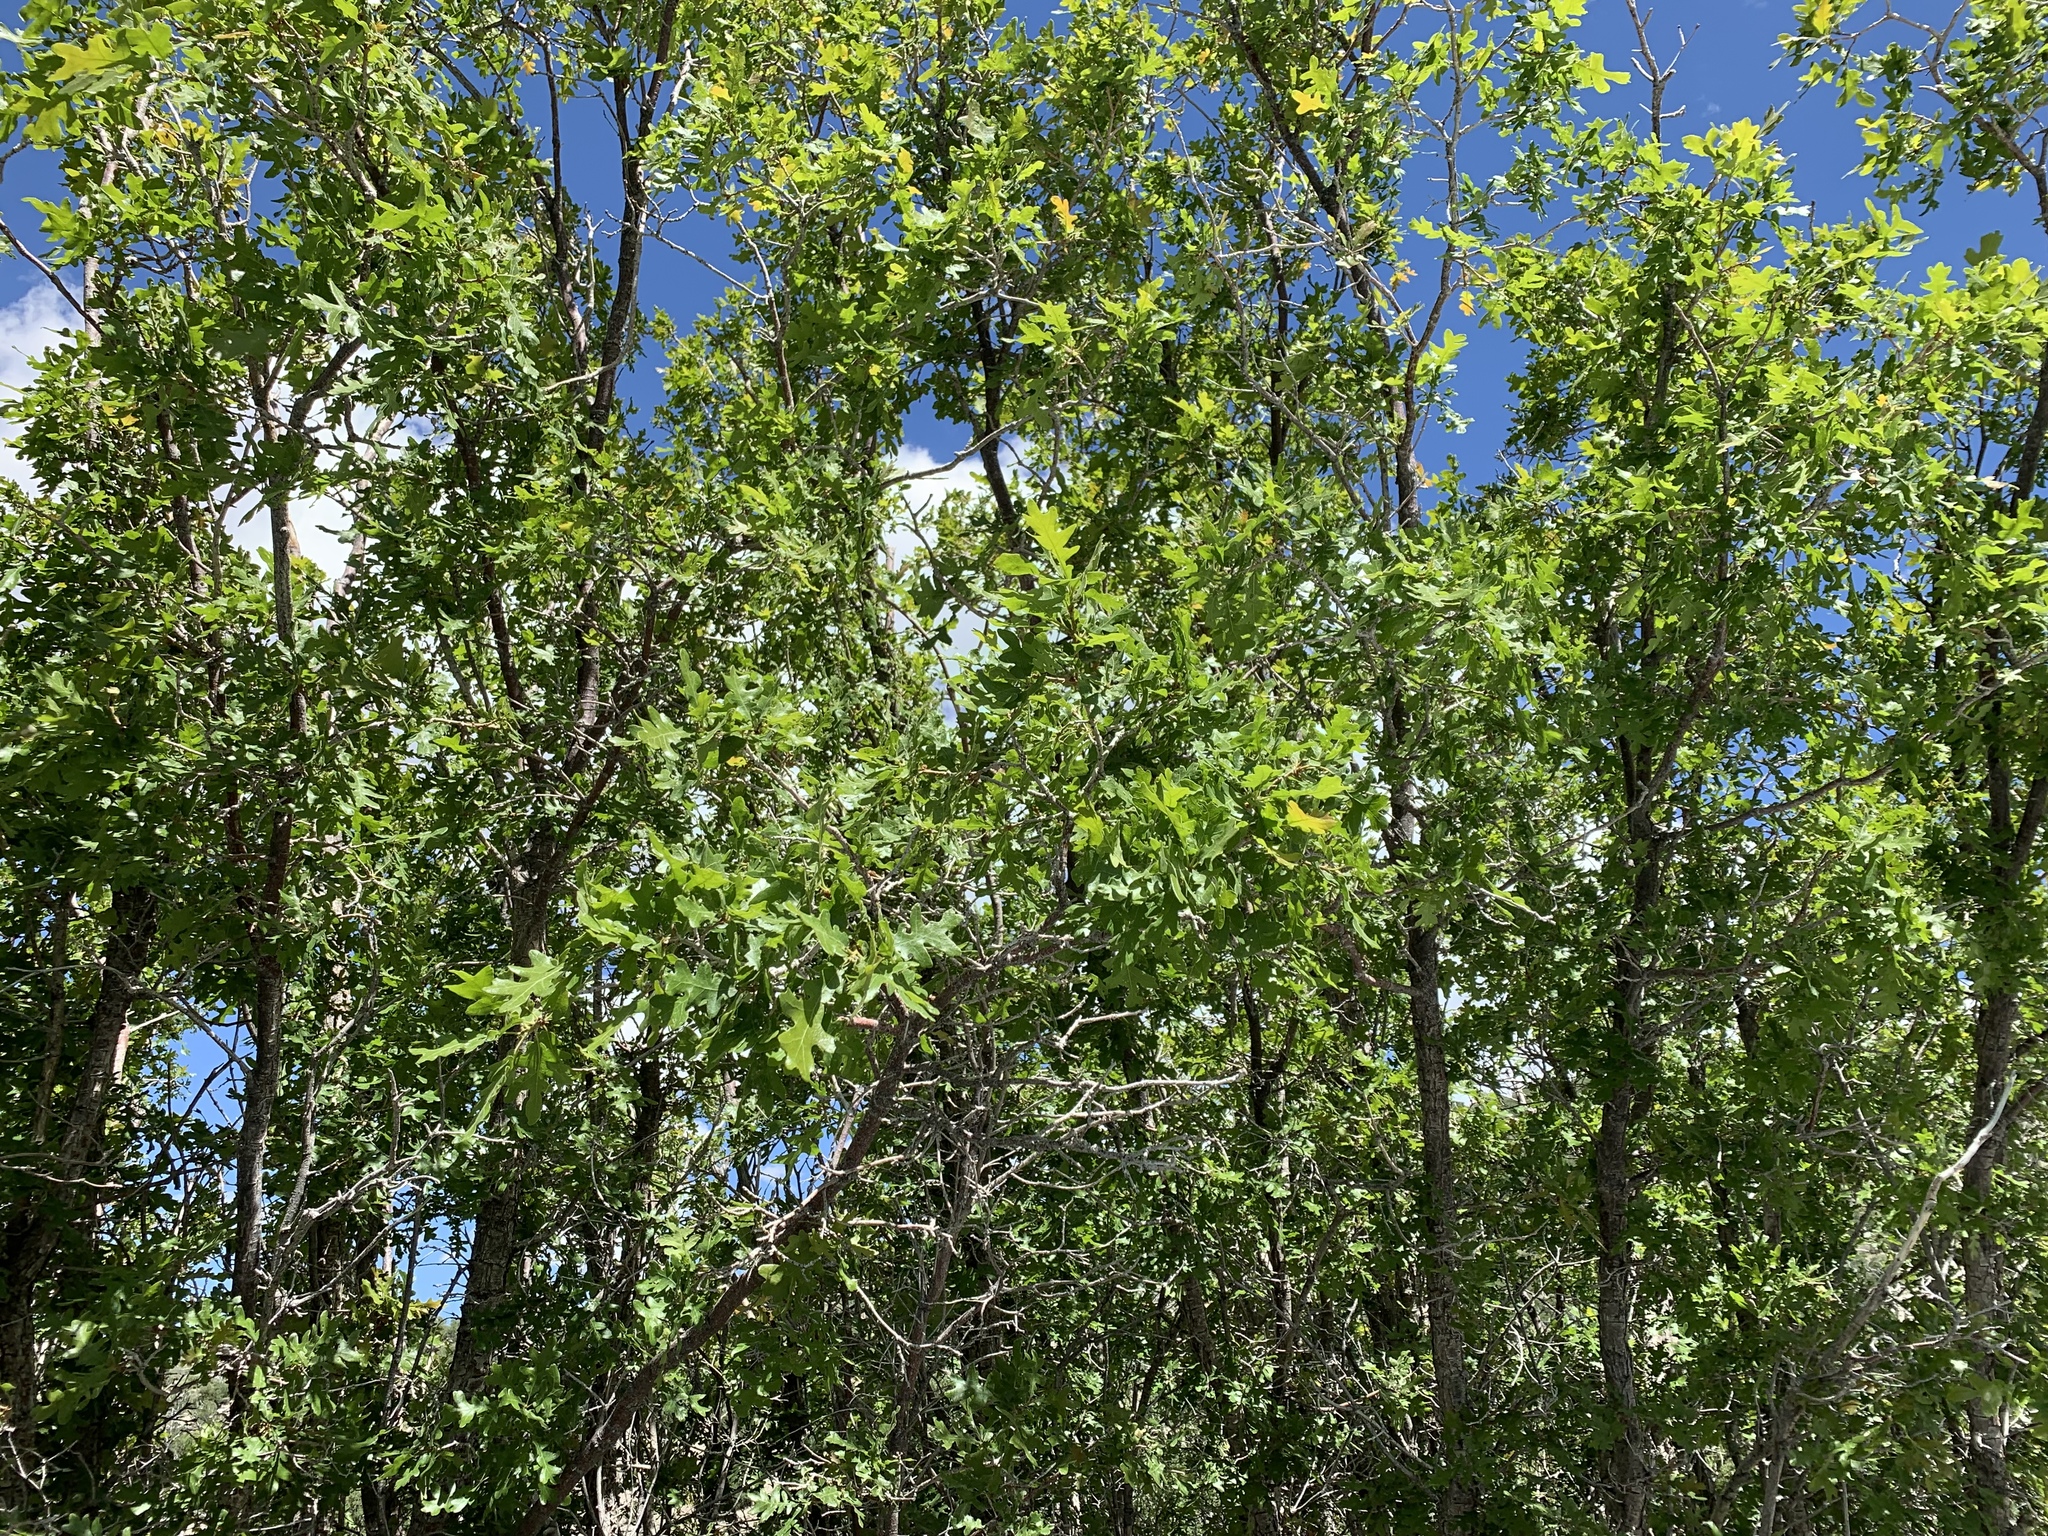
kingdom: Plantae
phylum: Tracheophyta
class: Magnoliopsida
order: Fagales
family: Fagaceae
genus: Quercus
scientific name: Quercus gambelii
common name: Gambel oak
